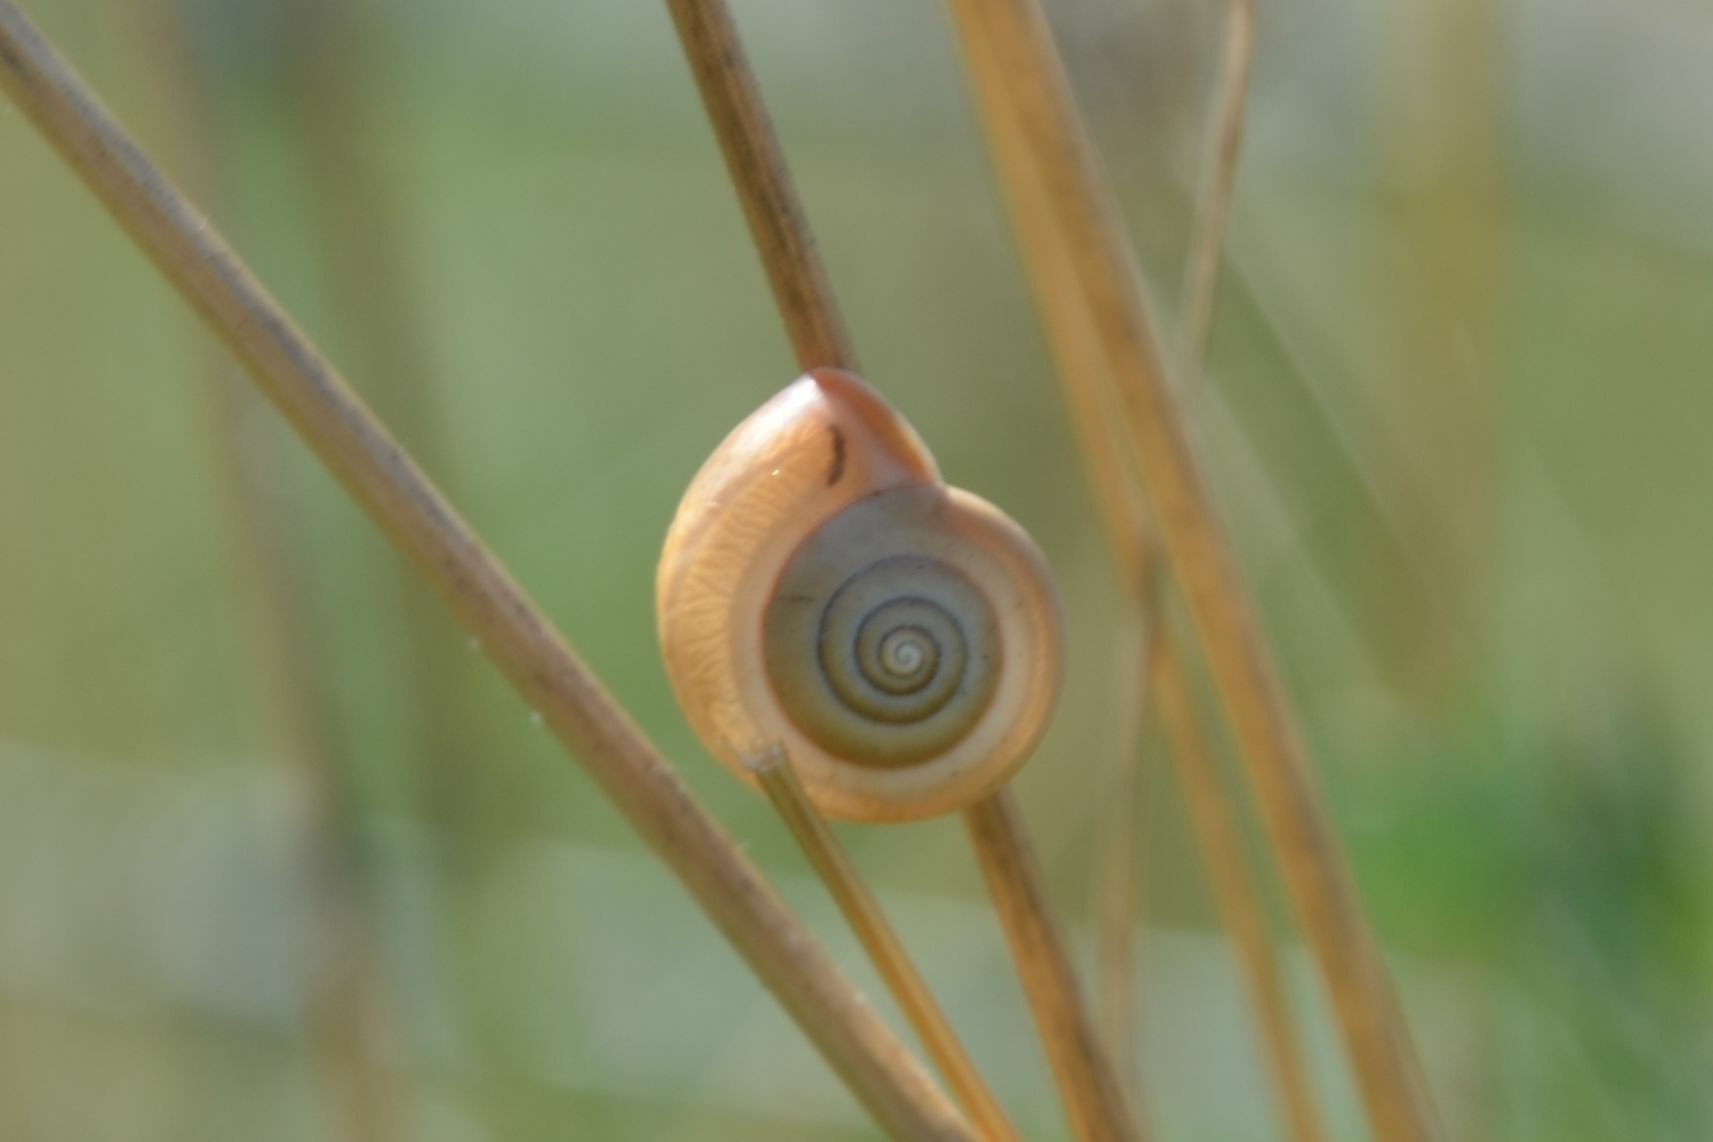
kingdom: Animalia
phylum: Mollusca
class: Gastropoda
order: Stylommatophora
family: Hygromiidae
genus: Monacha
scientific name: Monacha cartusiana
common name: Carthusian snail
